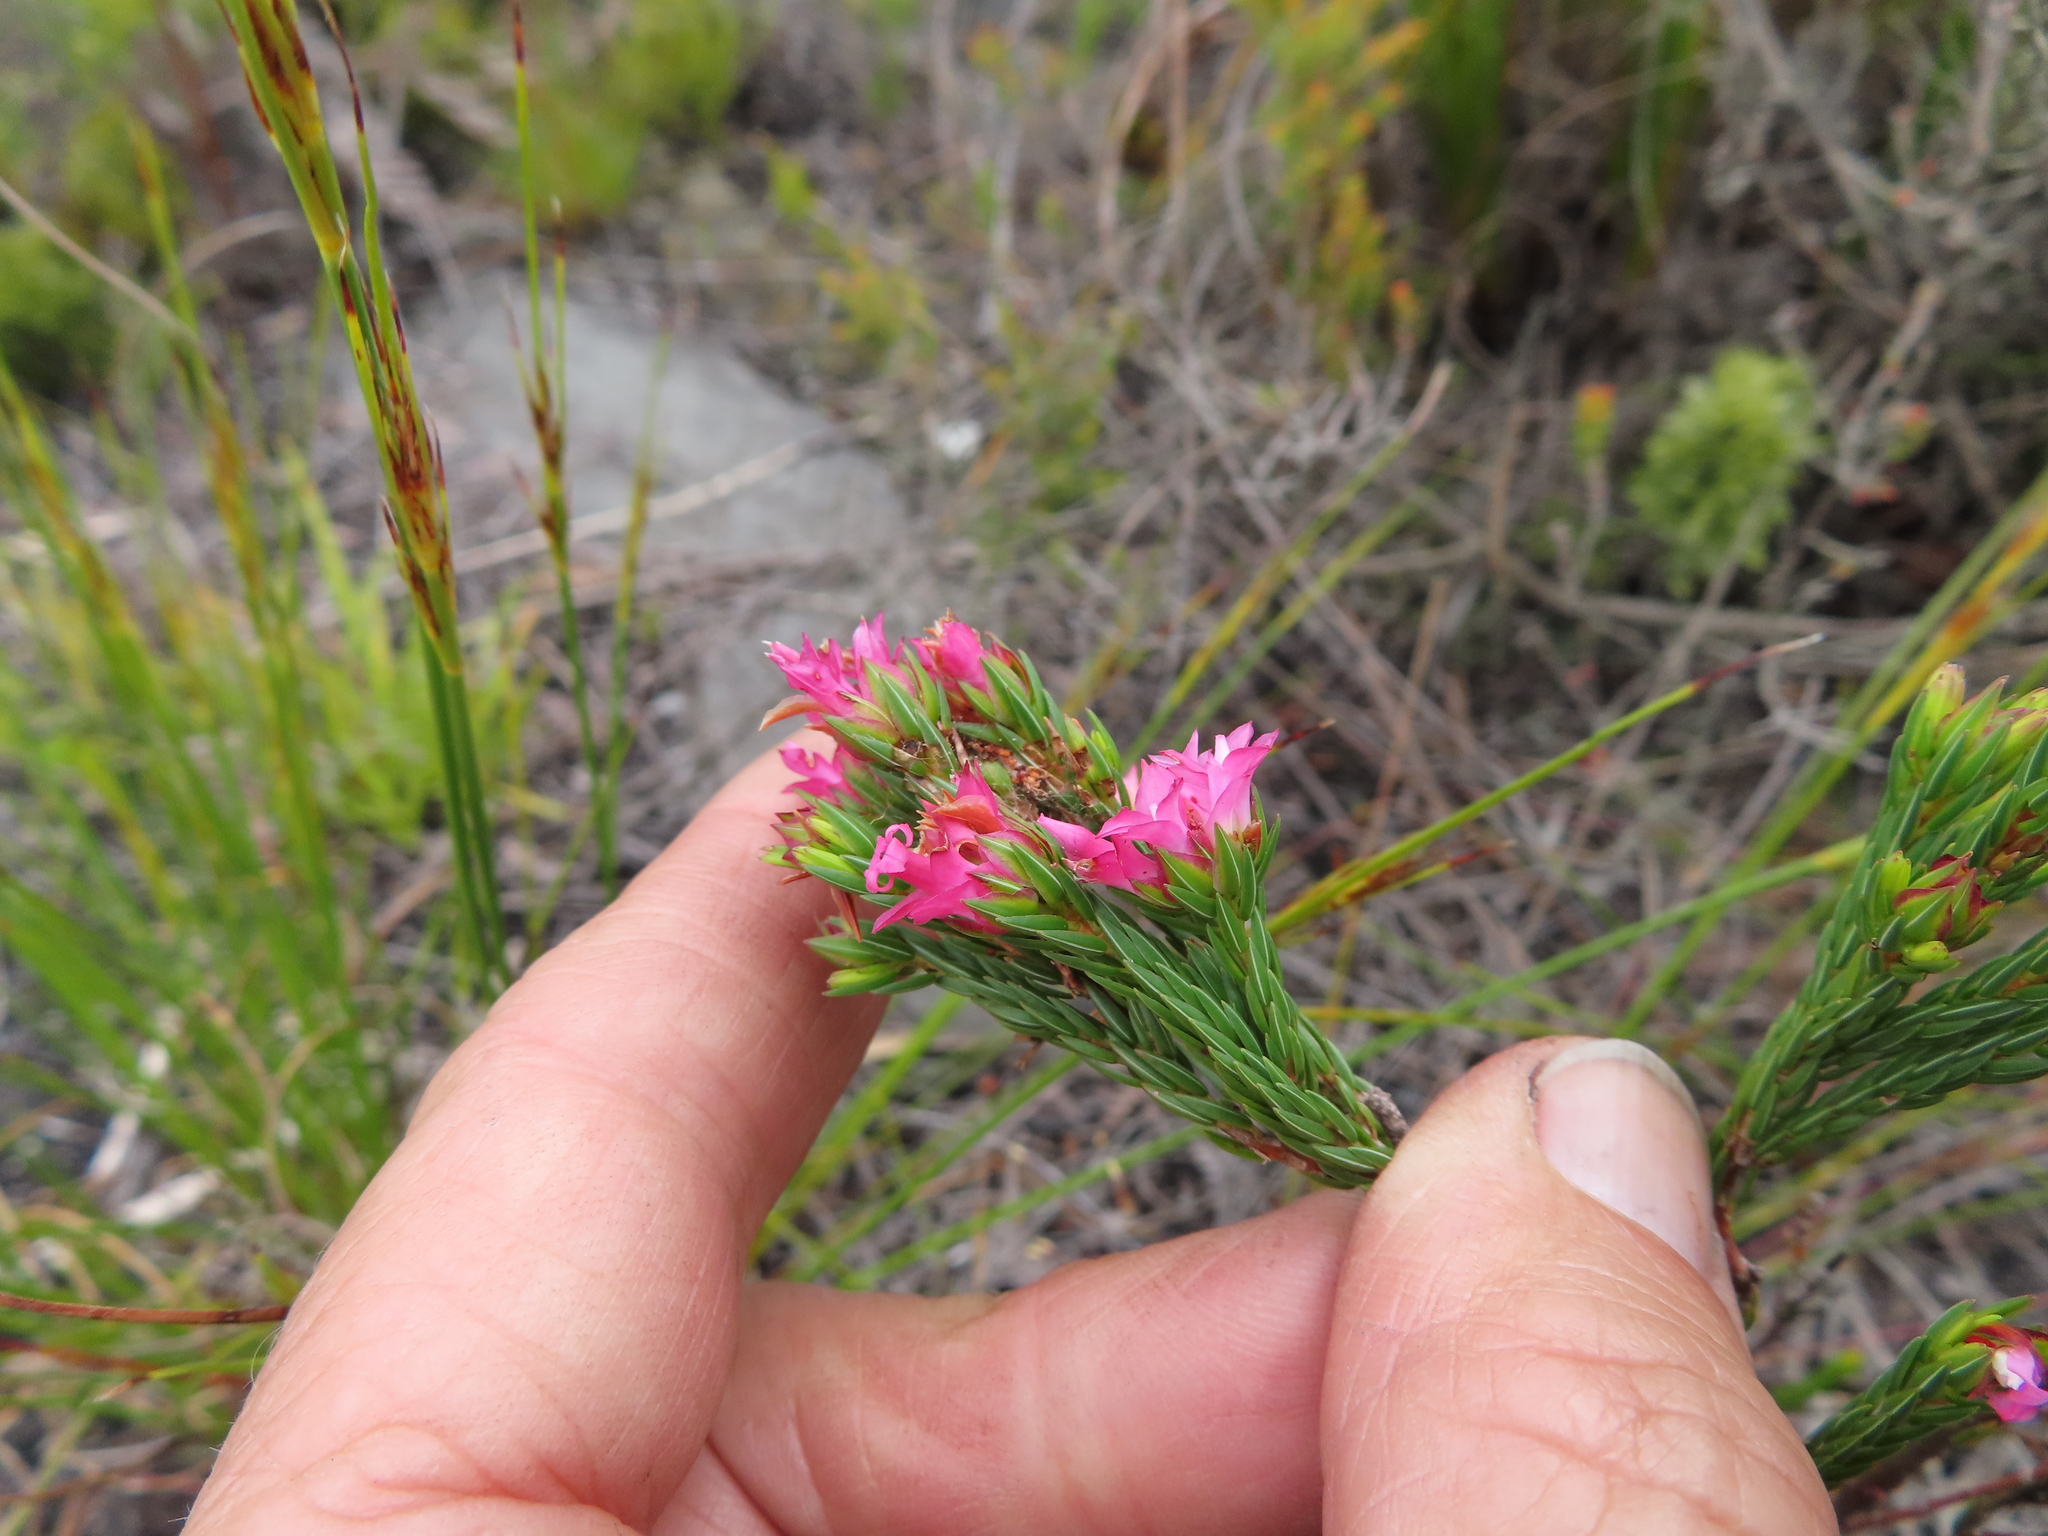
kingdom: Plantae
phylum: Tracheophyta
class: Magnoliopsida
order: Ericales
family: Ericaceae
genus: Erica
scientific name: Erica bracteolaris
